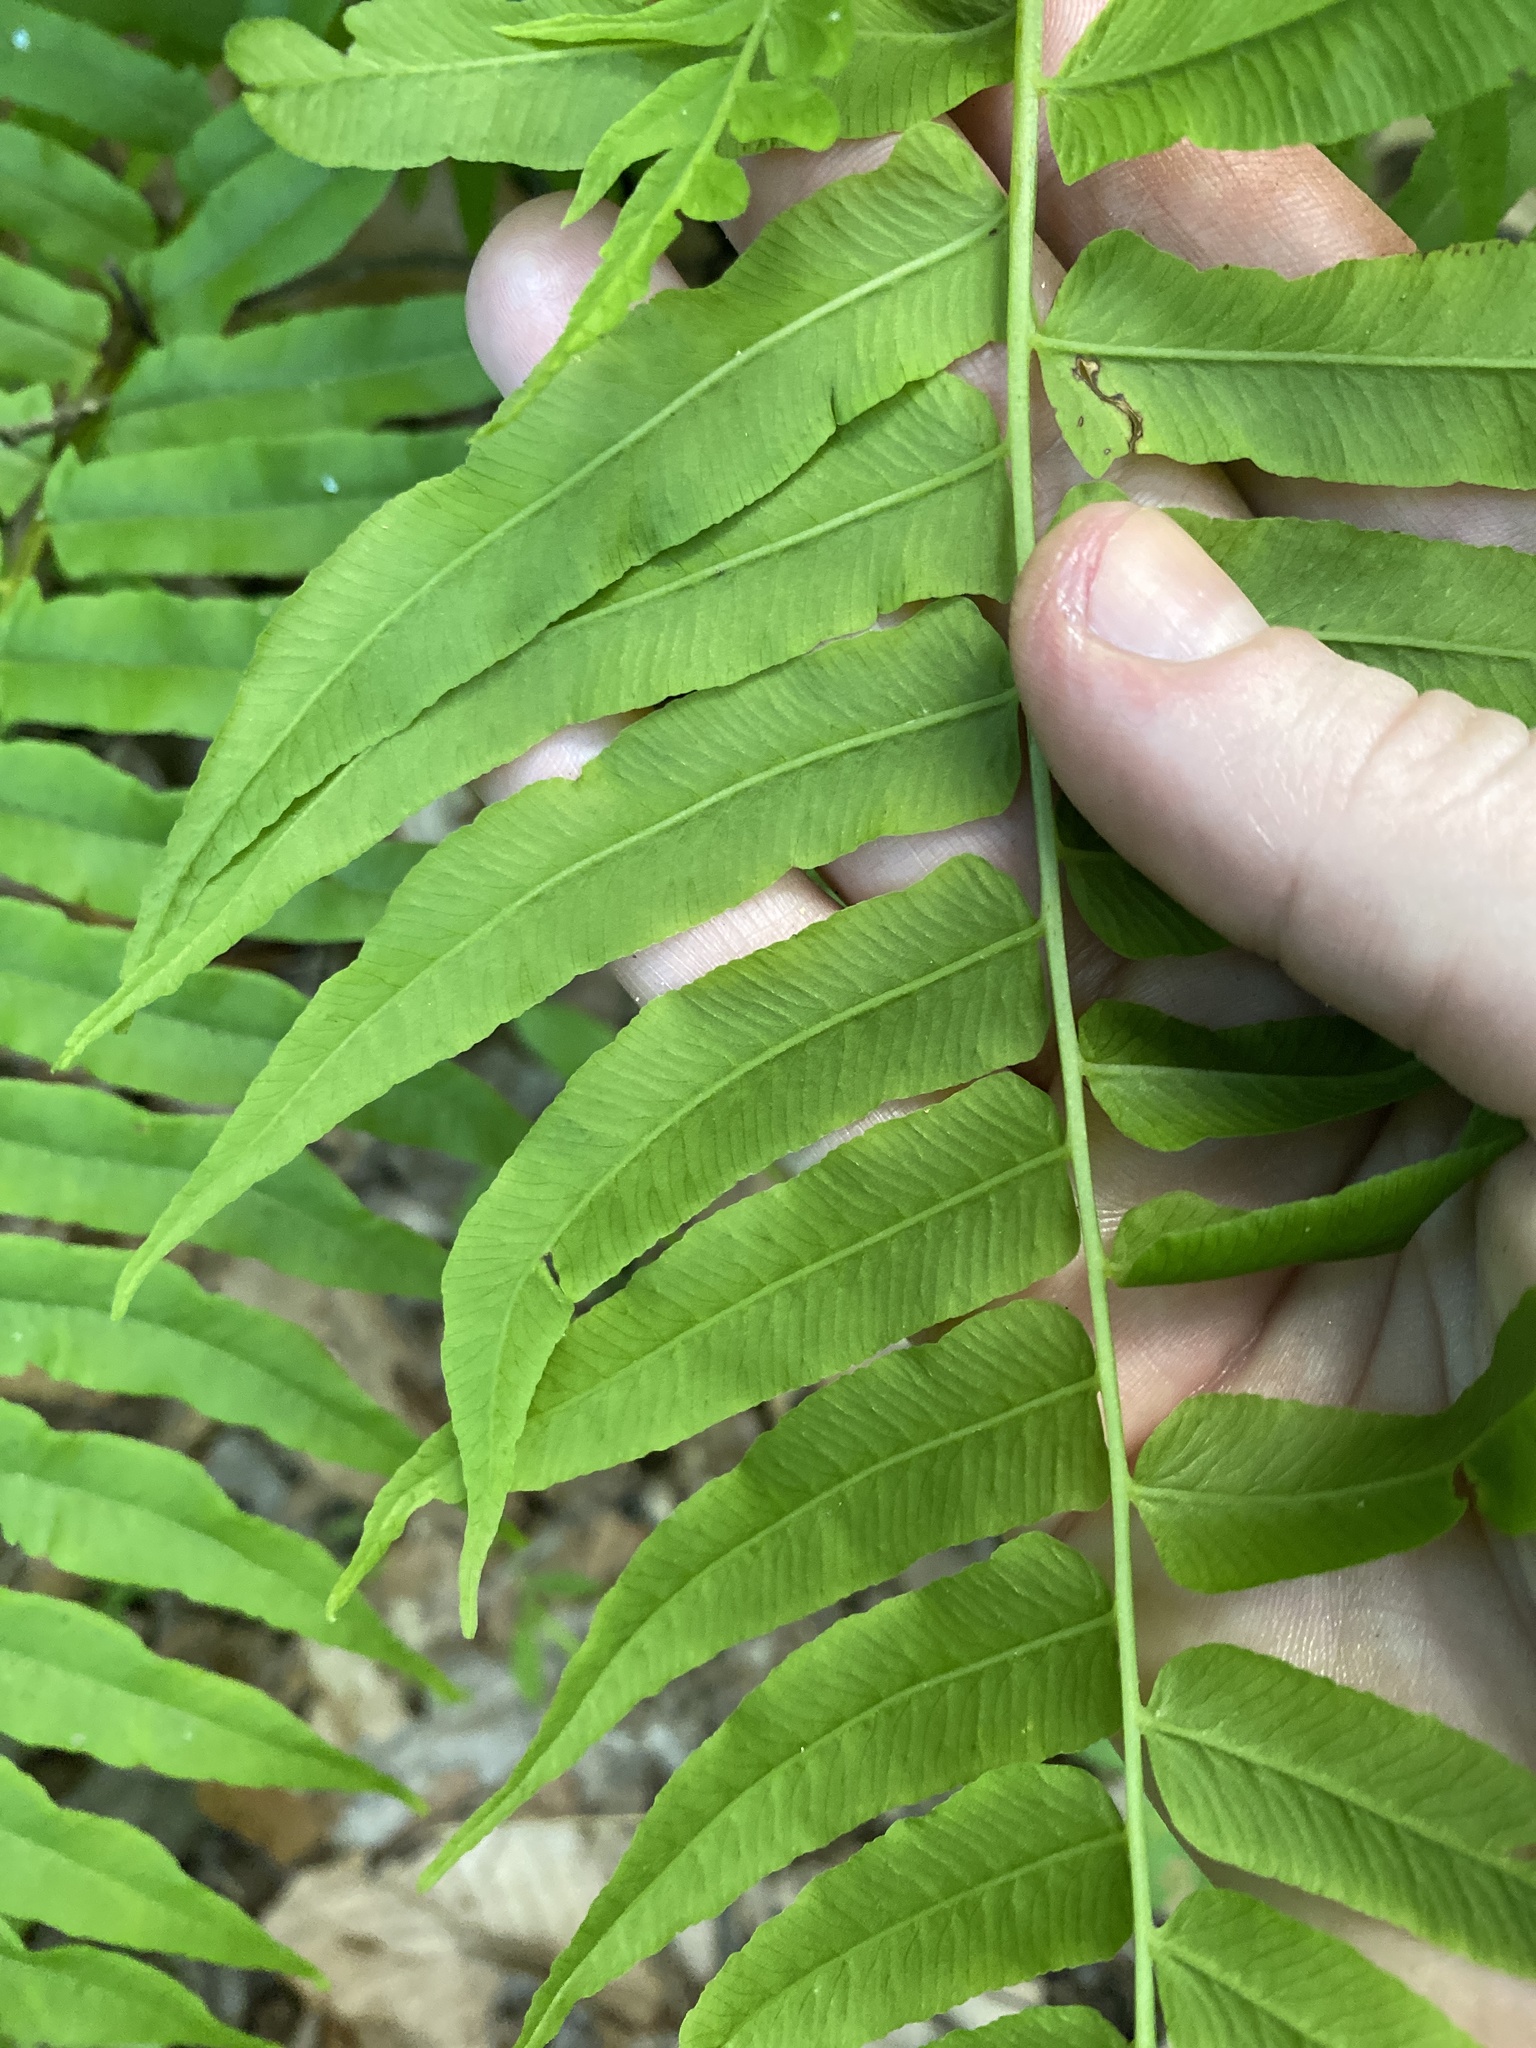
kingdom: Plantae
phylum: Tracheophyta
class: Polypodiopsida
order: Polypodiales
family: Diplaziopsidaceae
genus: Homalosorus
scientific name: Homalosorus pycnocarpos
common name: Glade fern
